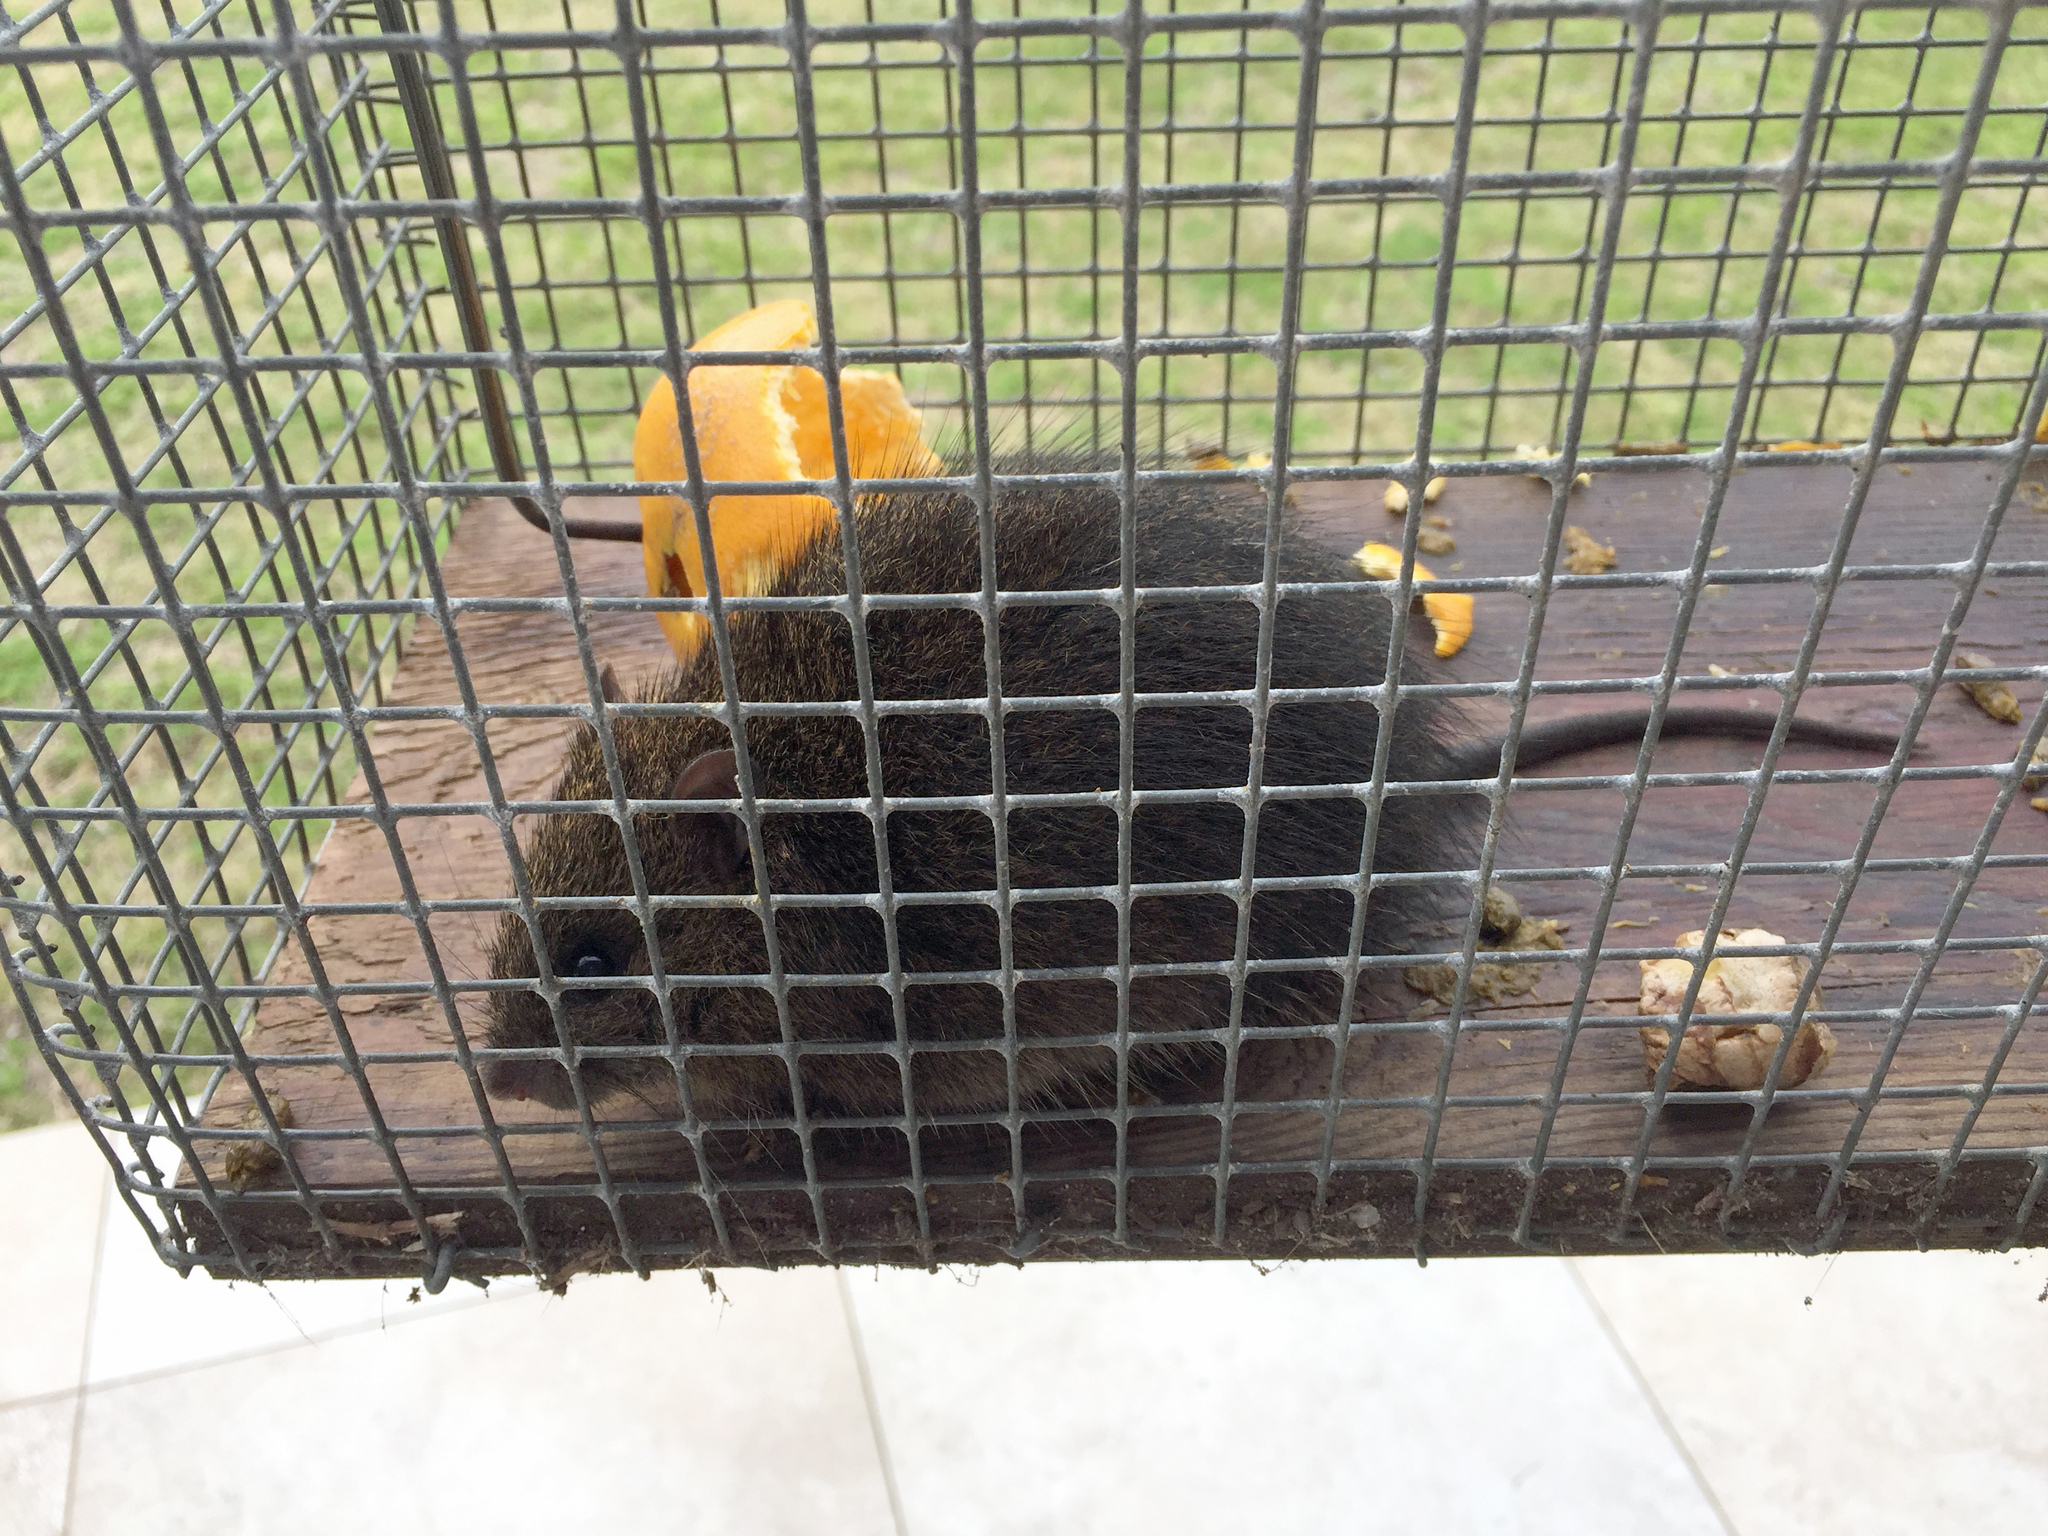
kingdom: Animalia
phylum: Chordata
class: Mammalia
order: Rodentia
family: Muridae
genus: Rattus
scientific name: Rattus lutreolus
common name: Australian swamp rat
